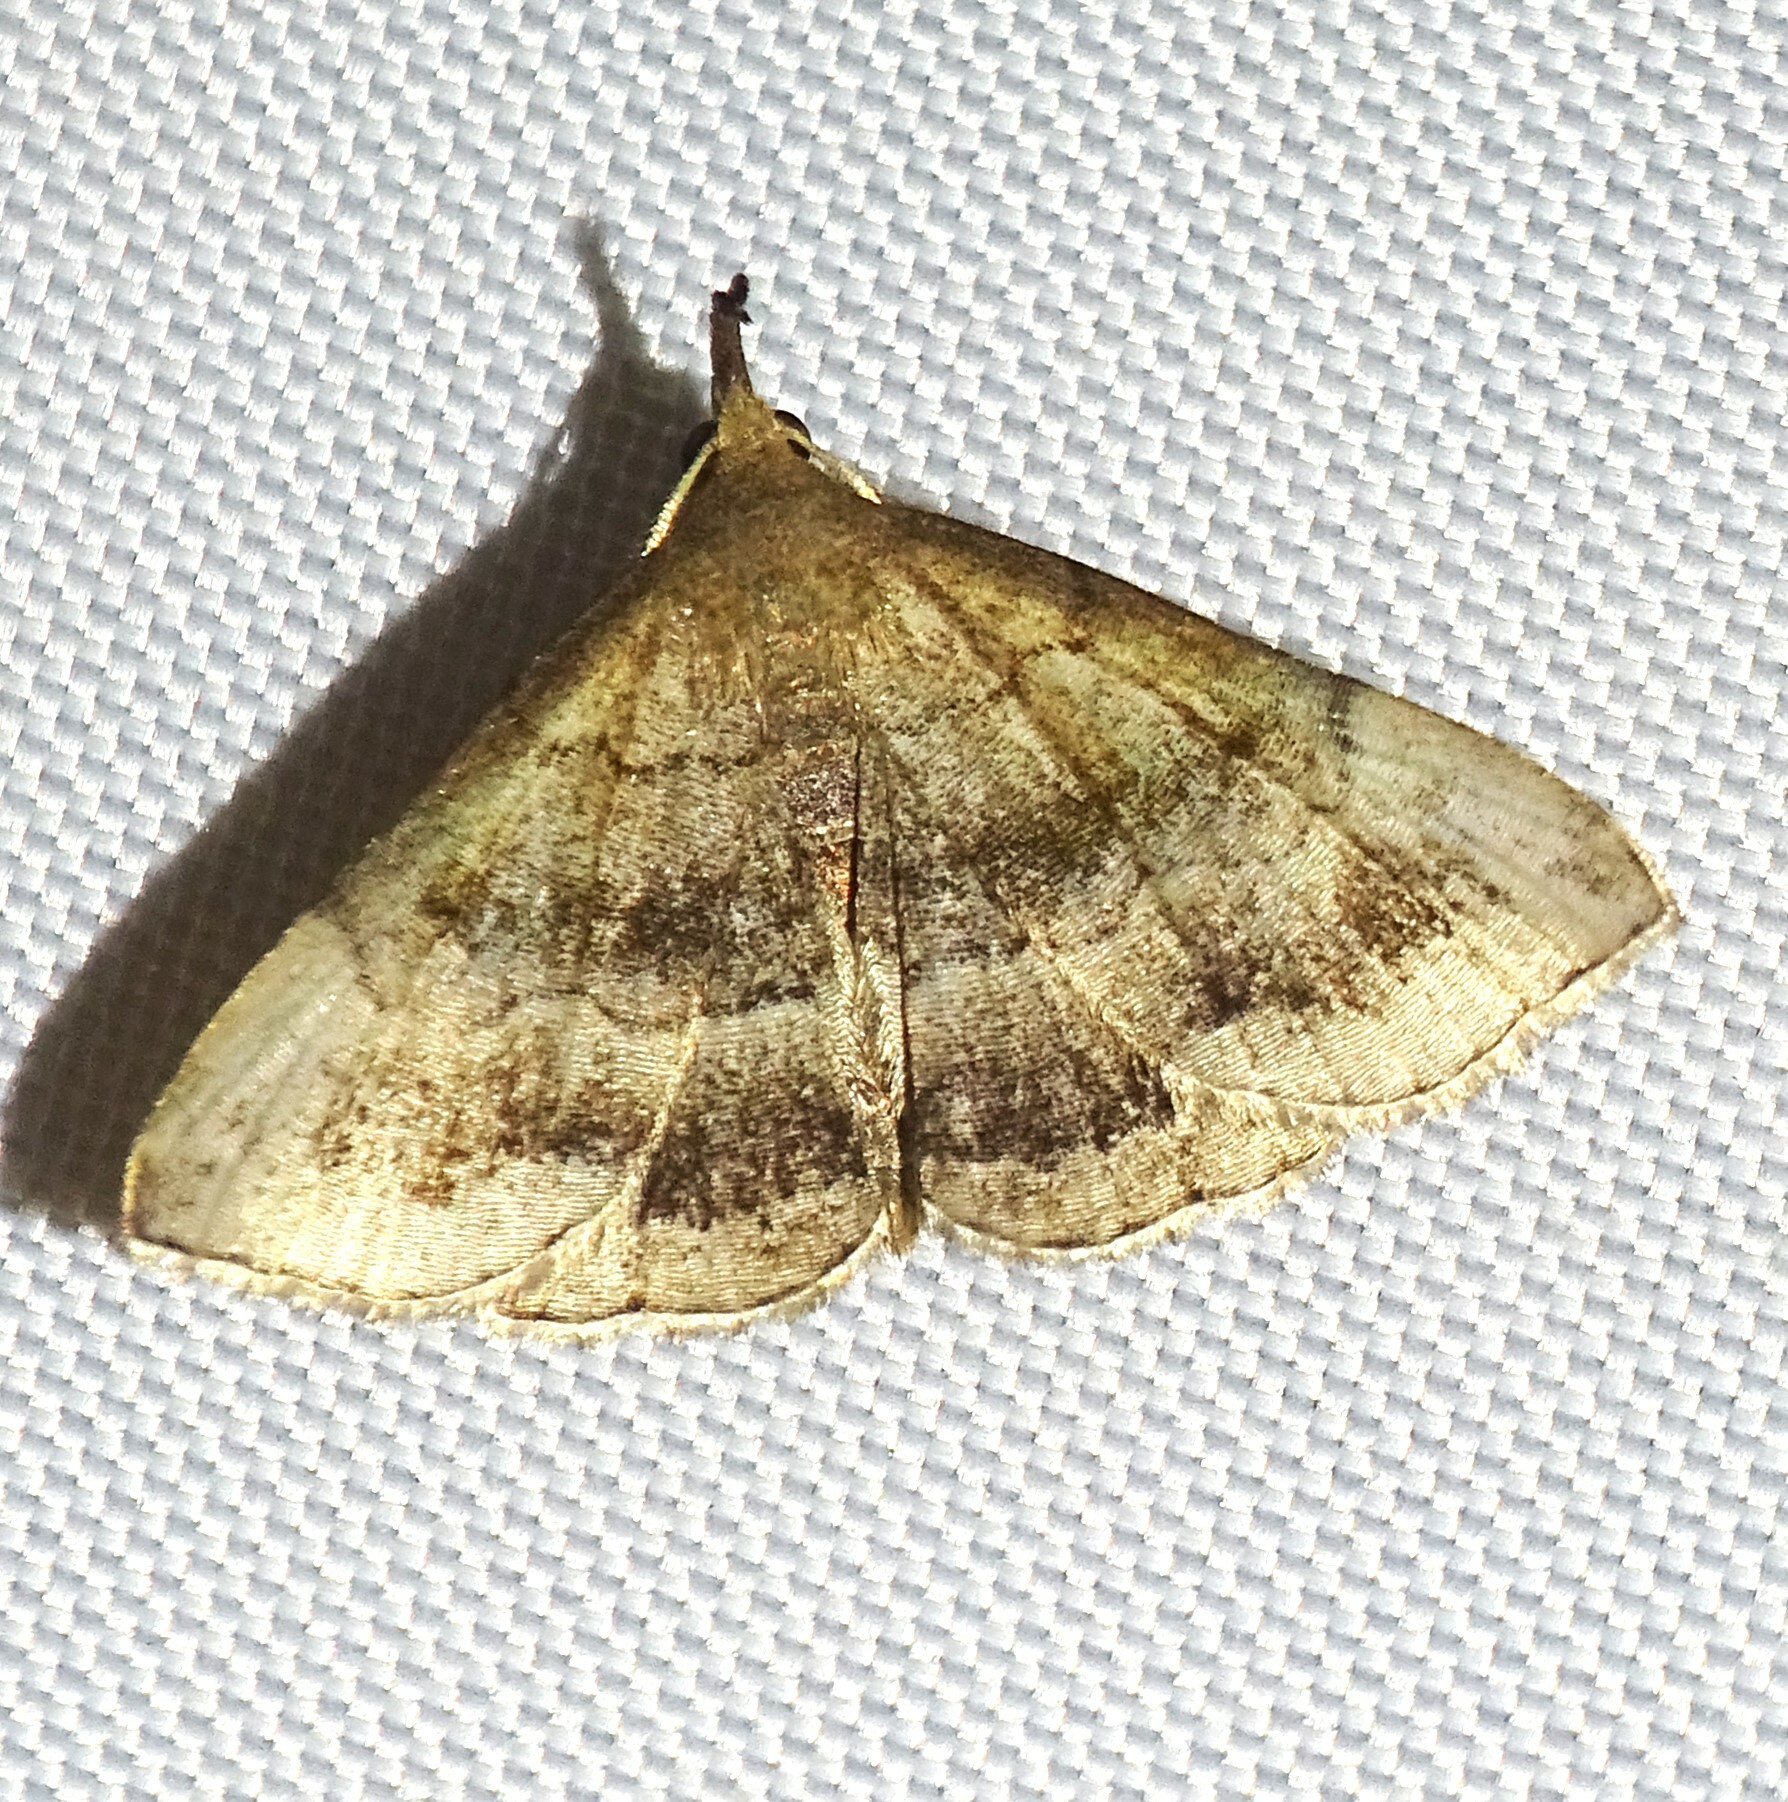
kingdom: Animalia
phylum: Arthropoda
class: Insecta
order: Lepidoptera
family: Erebidae
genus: Phalaenostola
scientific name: Phalaenostola larentioides
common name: Black-banded owlet
